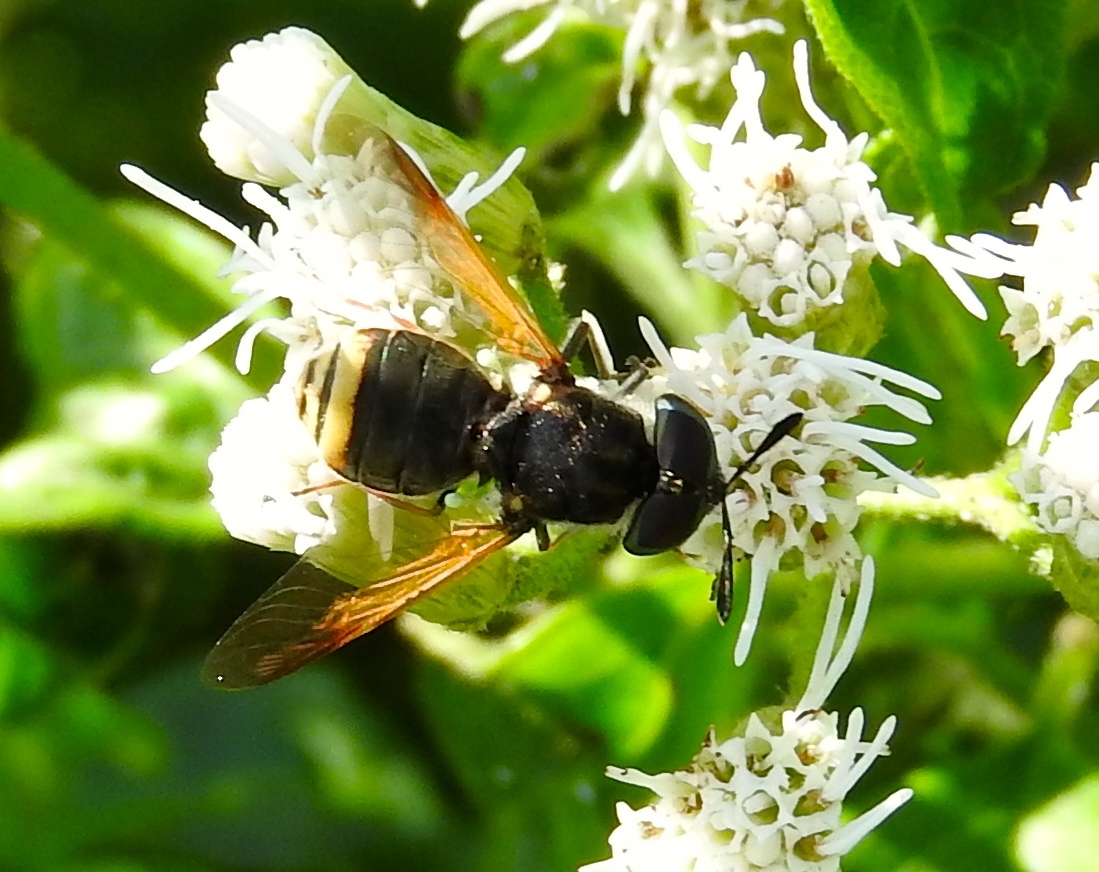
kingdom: Animalia
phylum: Arthropoda
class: Insecta
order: Diptera
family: Stratiomyidae
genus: Hoplitimyia
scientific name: Hoplitimyia
